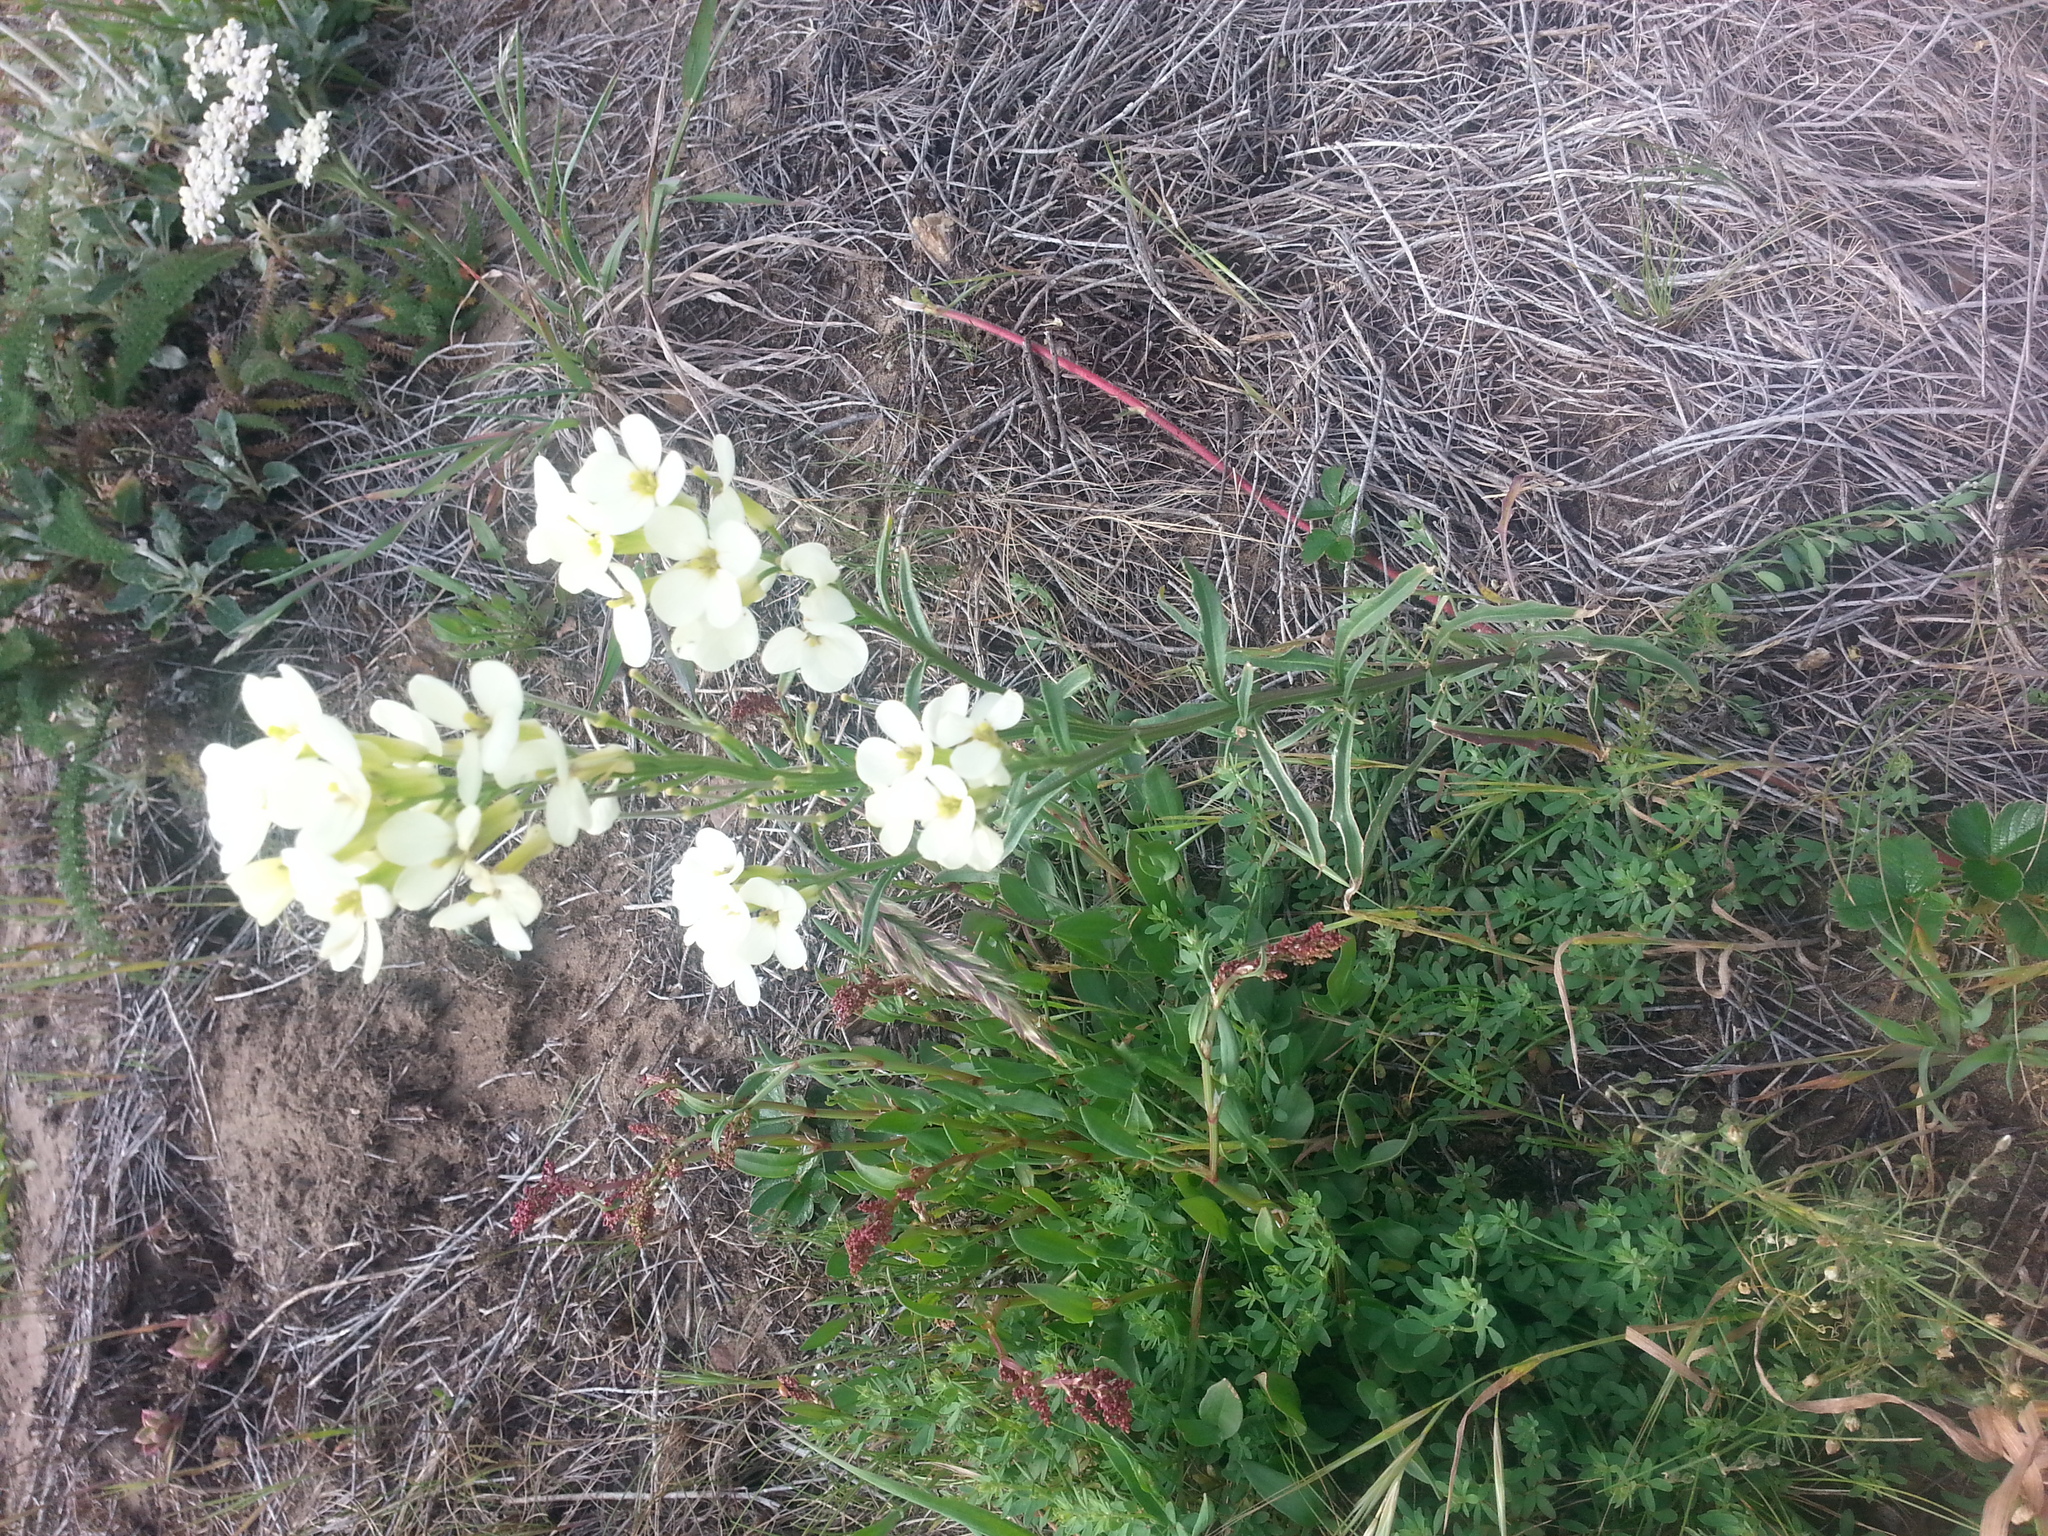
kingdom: Plantae
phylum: Tracheophyta
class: Magnoliopsida
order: Brassicales
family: Brassicaceae
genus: Erysimum
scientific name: Erysimum franciscanum
